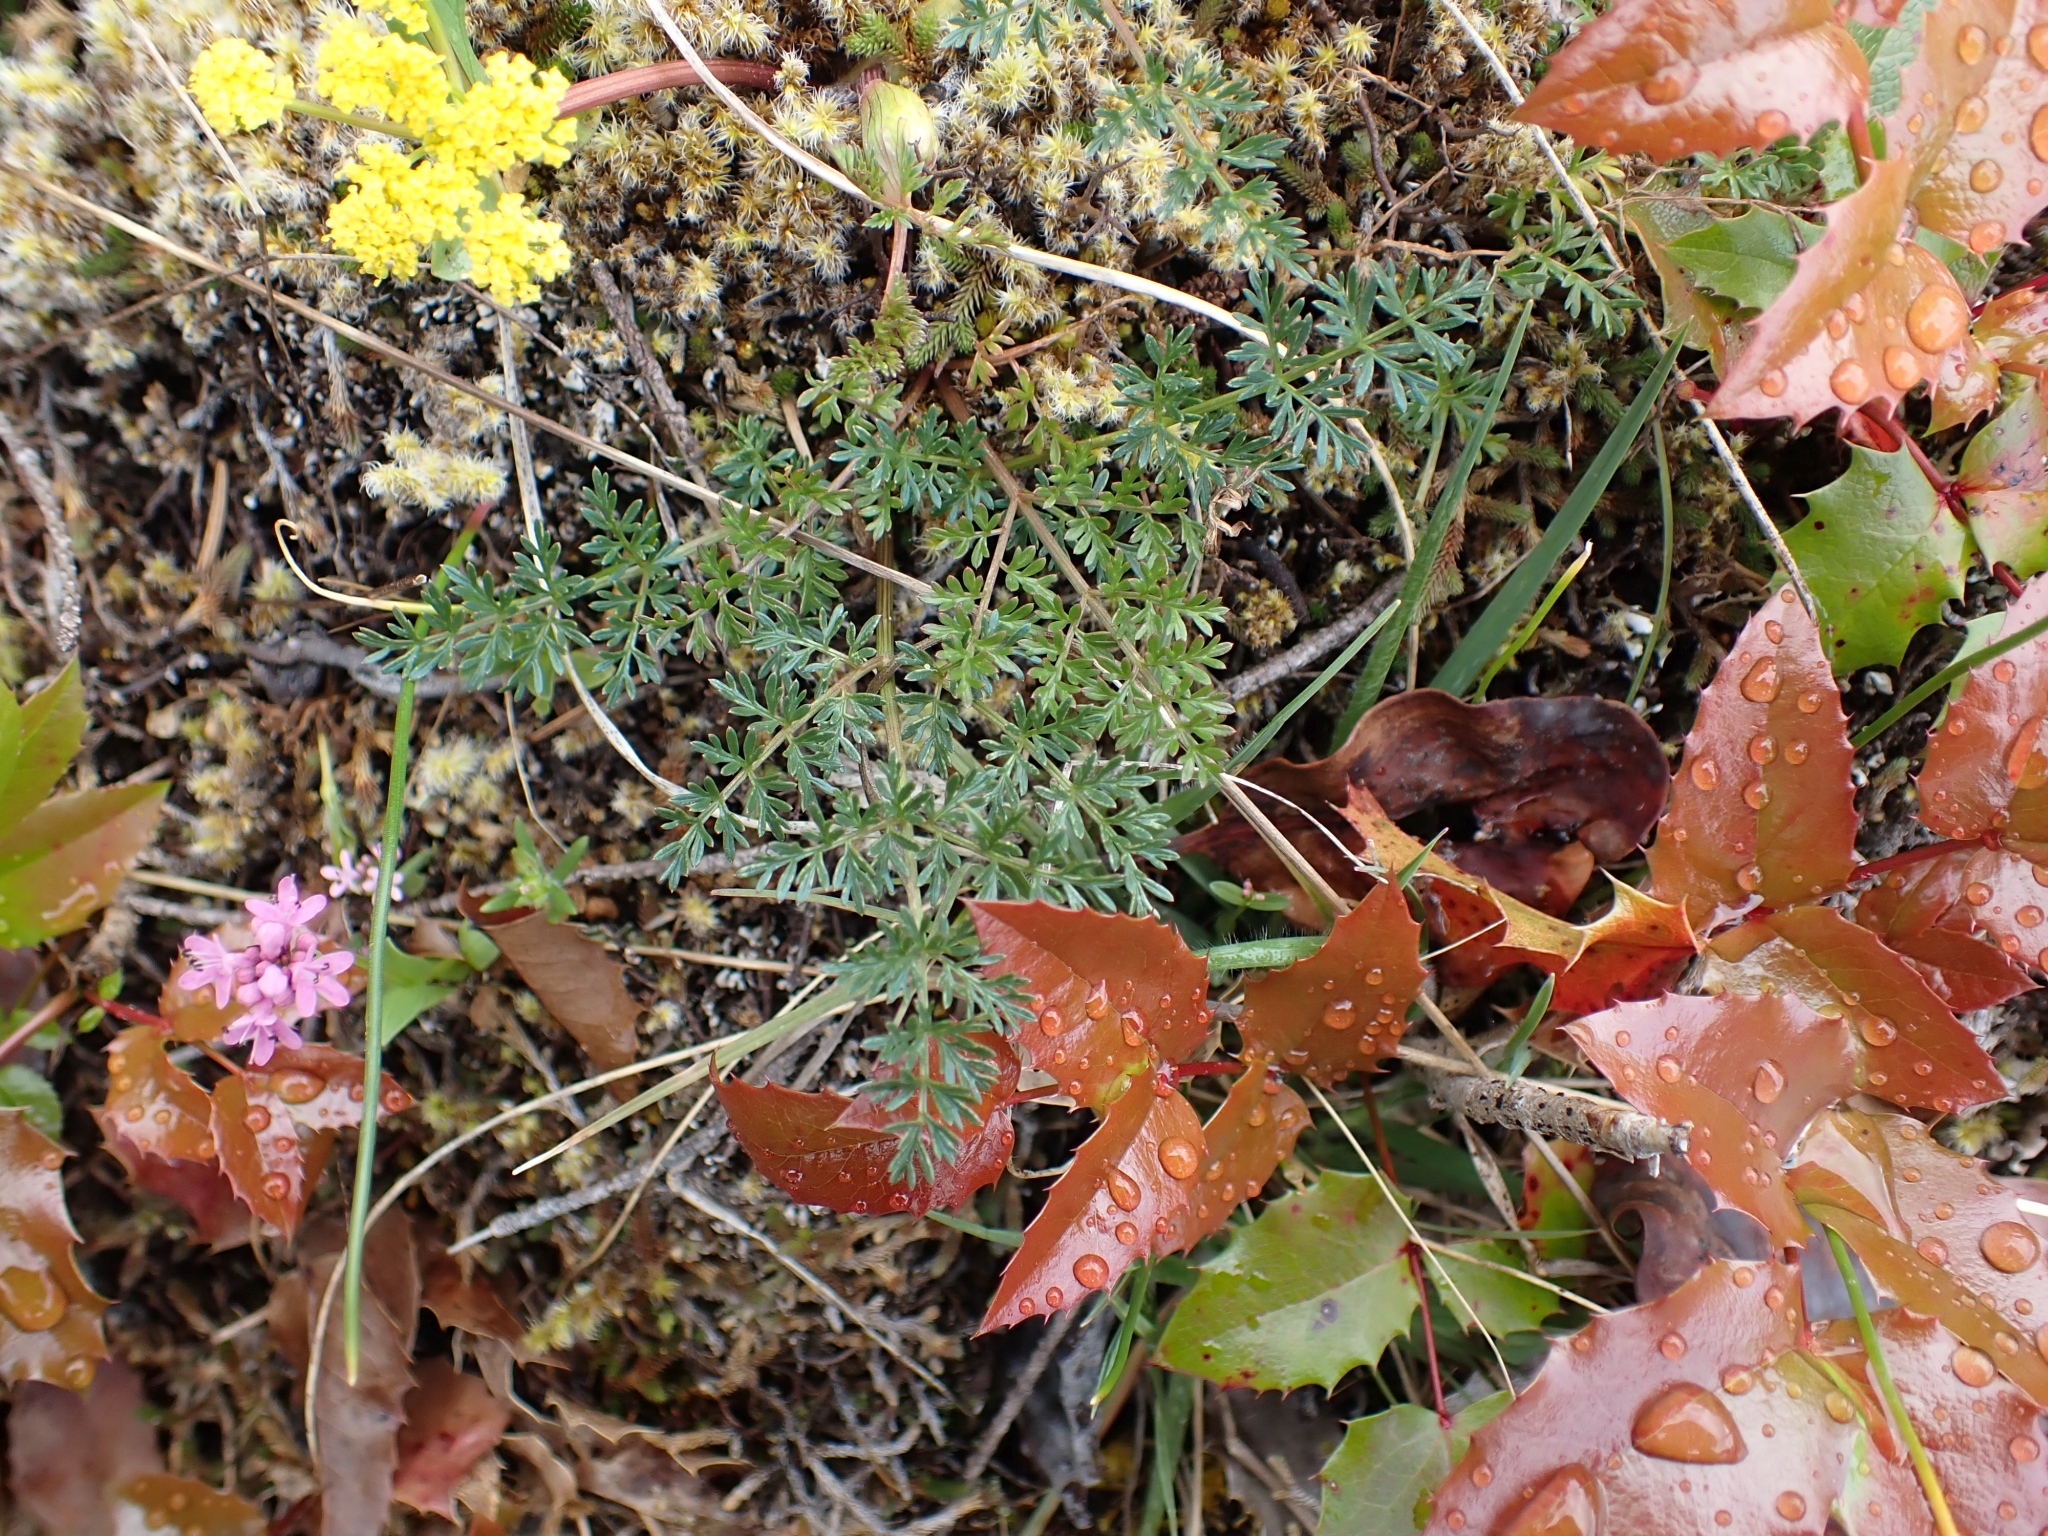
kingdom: Plantae
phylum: Tracheophyta
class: Magnoliopsida
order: Apiales
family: Apiaceae
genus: Lomatium
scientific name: Lomatium utriculatum
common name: Fine-leaf desert-parsley
